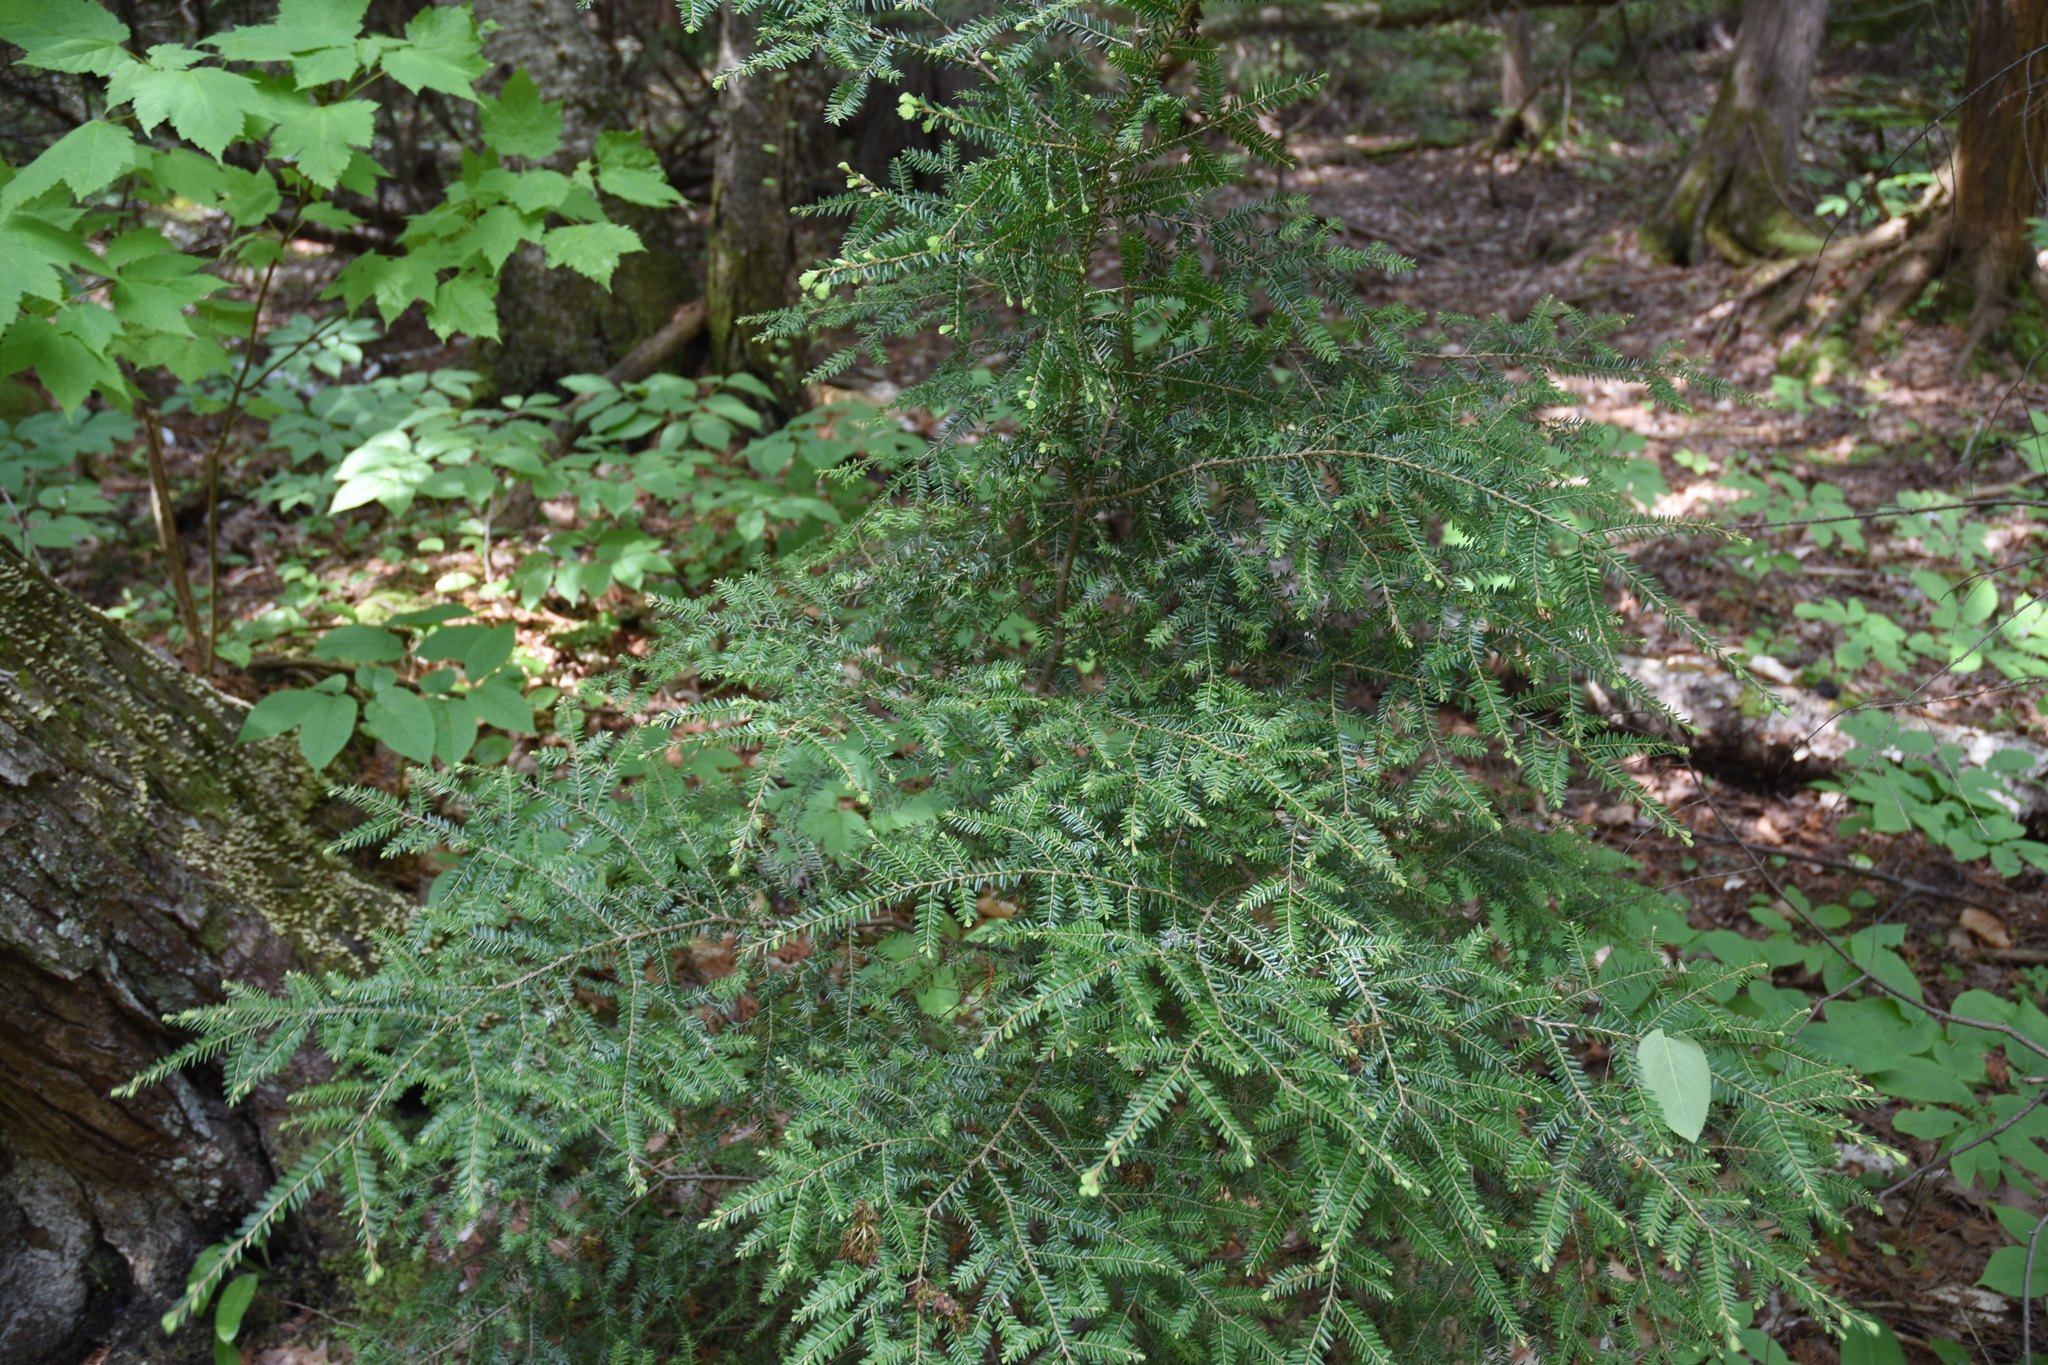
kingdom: Plantae
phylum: Tracheophyta
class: Pinopsida
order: Pinales
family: Pinaceae
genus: Tsuga
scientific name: Tsuga canadensis
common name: Eastern hemlock
